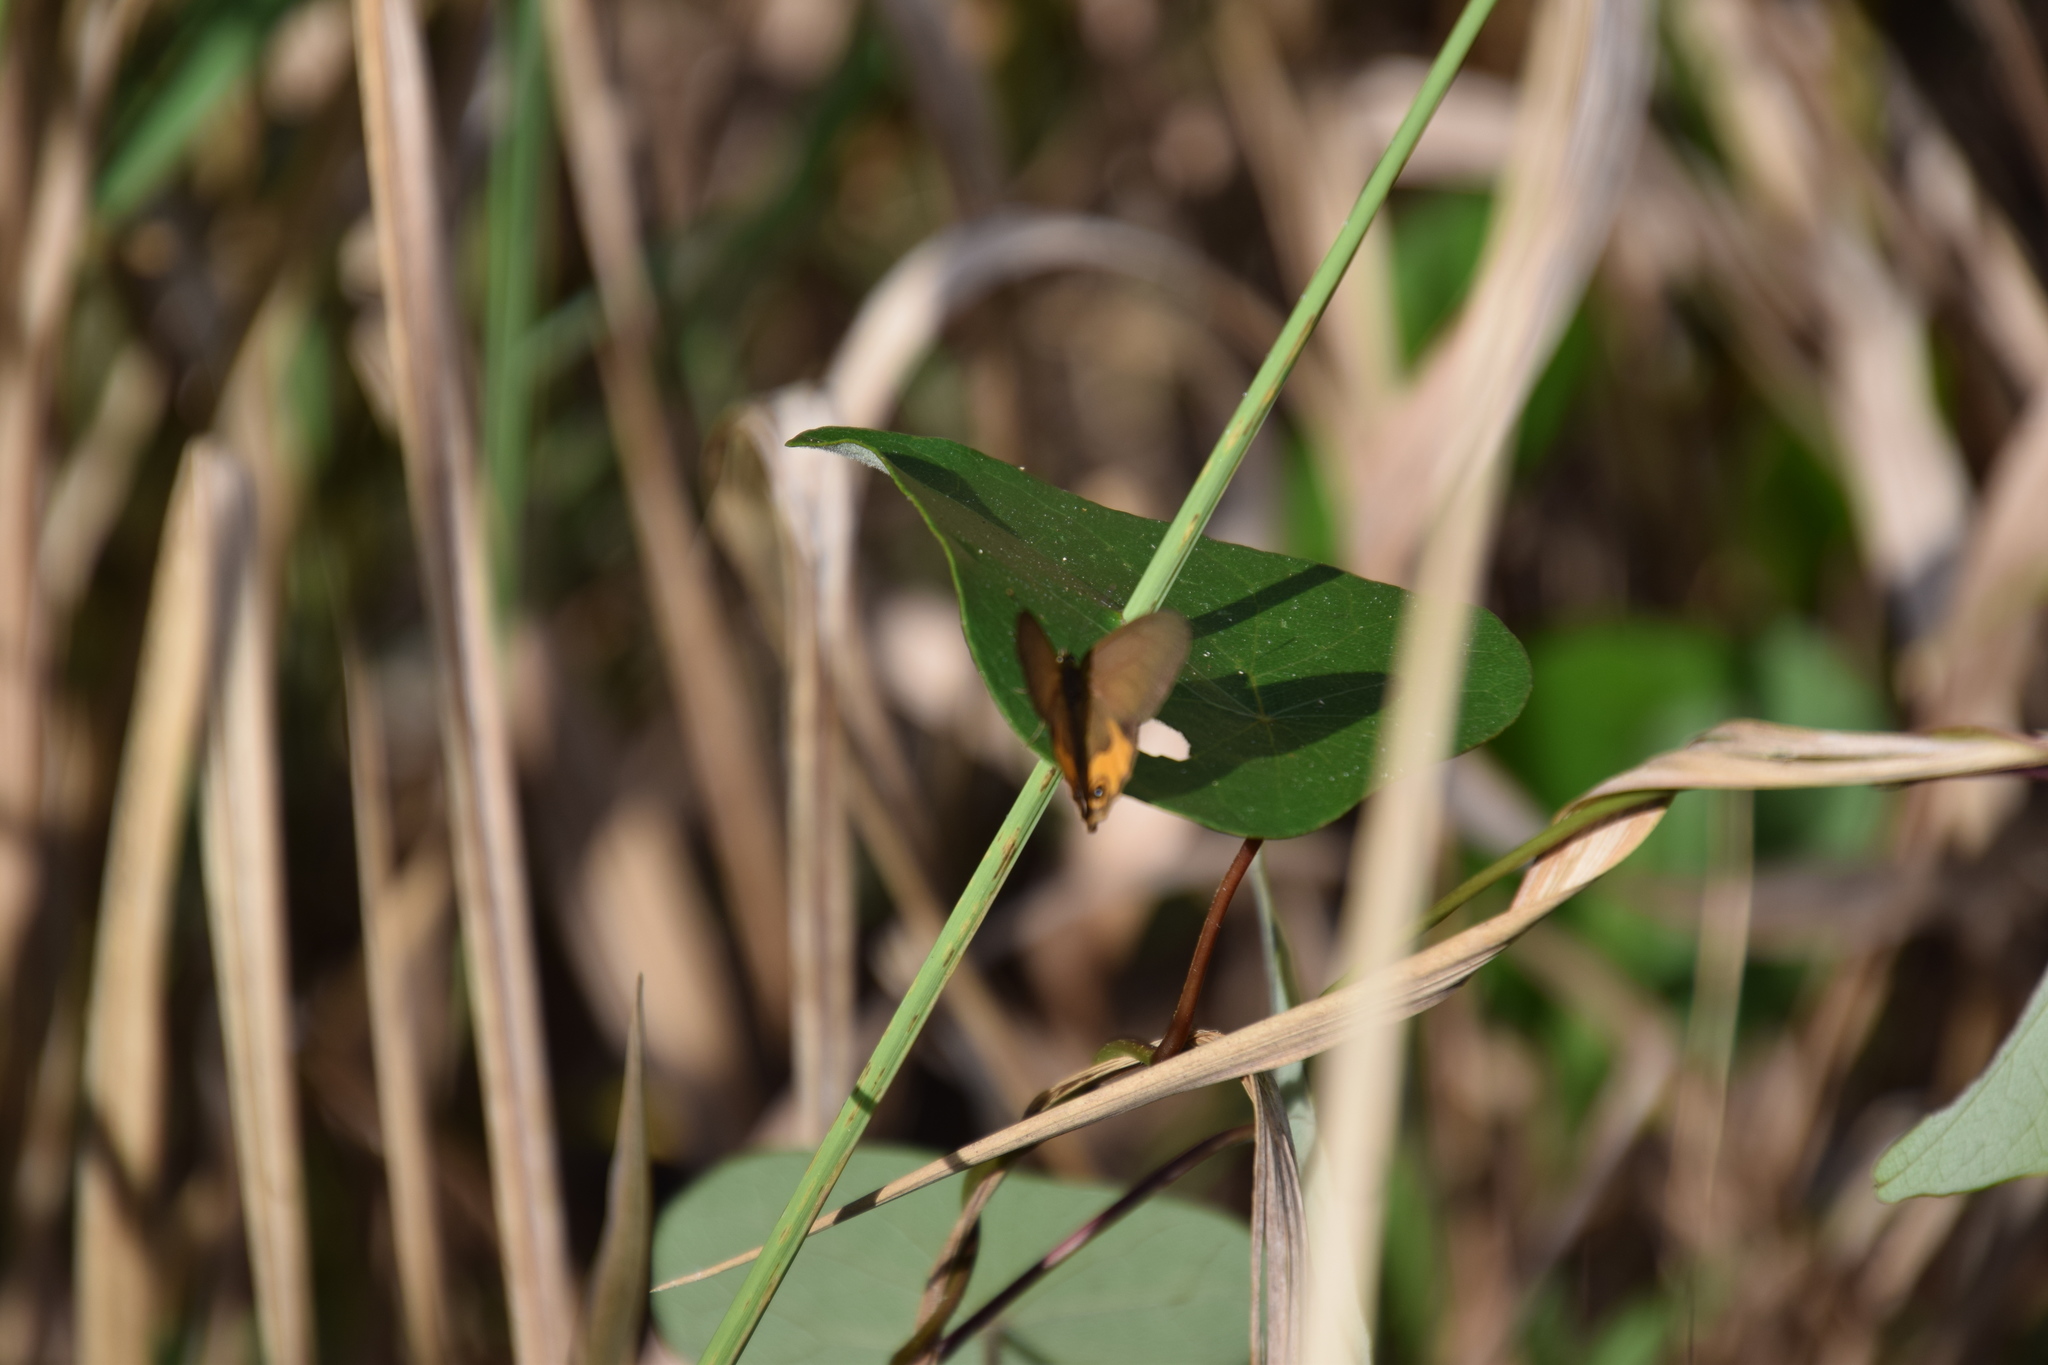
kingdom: Animalia
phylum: Arthropoda
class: Insecta
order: Lepidoptera
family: Nymphalidae
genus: Hypocysta
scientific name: Hypocysta metirius
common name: Brown ringlet
